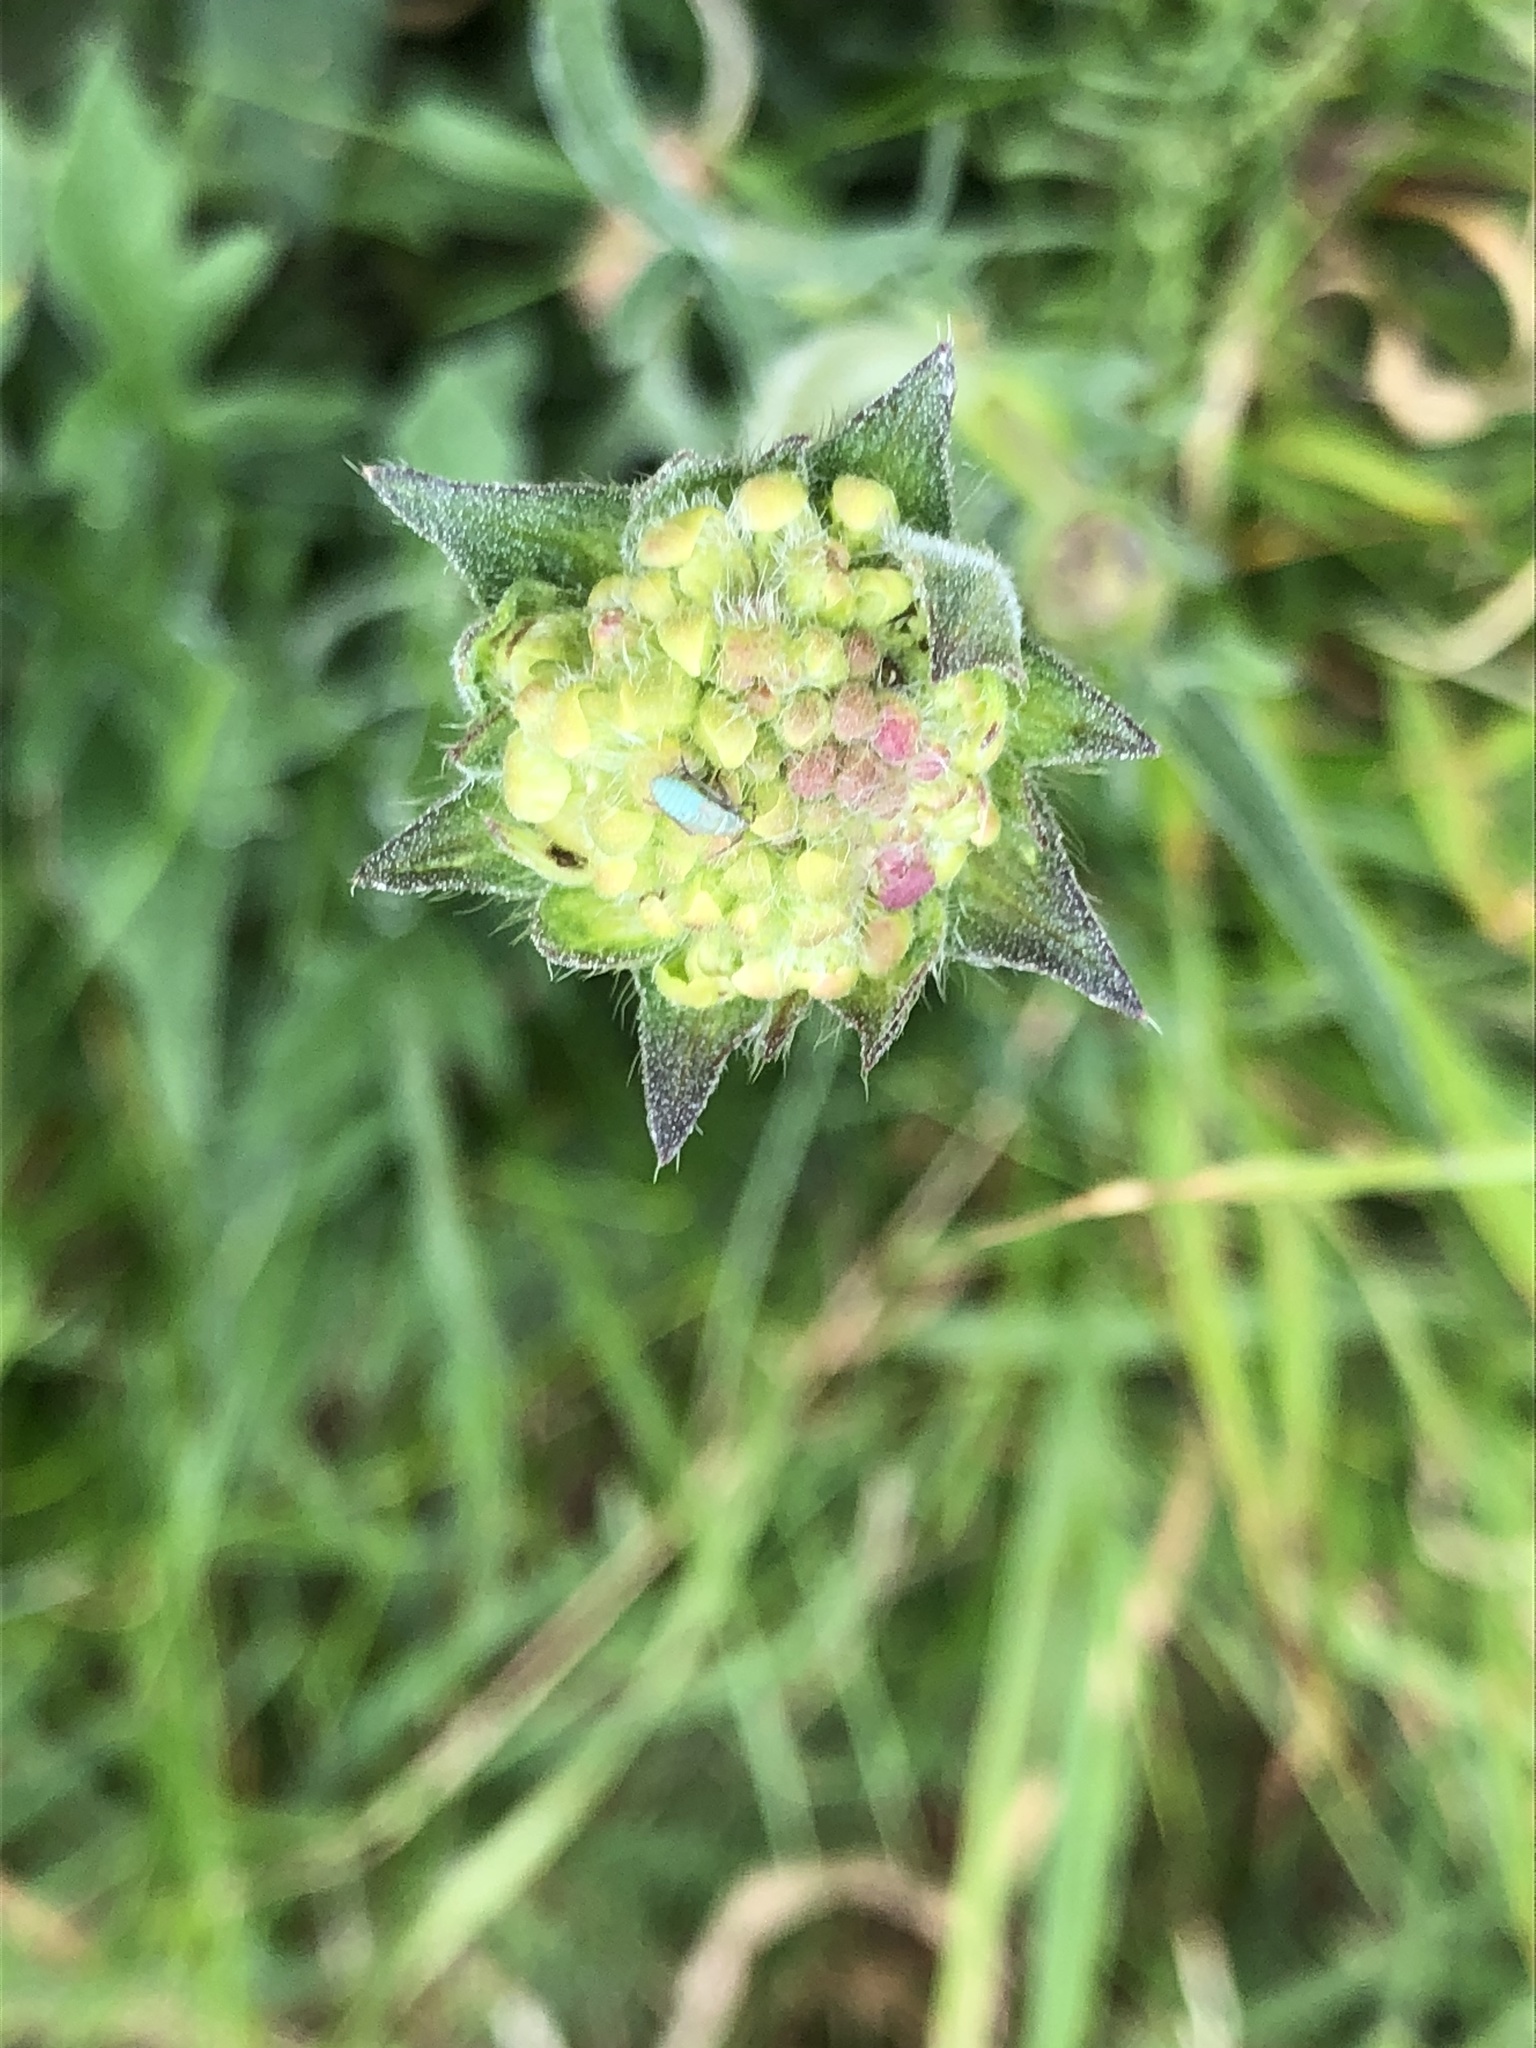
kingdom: Plantae
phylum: Tracheophyta
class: Magnoliopsida
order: Dipsacales
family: Caprifoliaceae
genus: Knautia
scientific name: Knautia arvensis
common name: Field scabiosa
